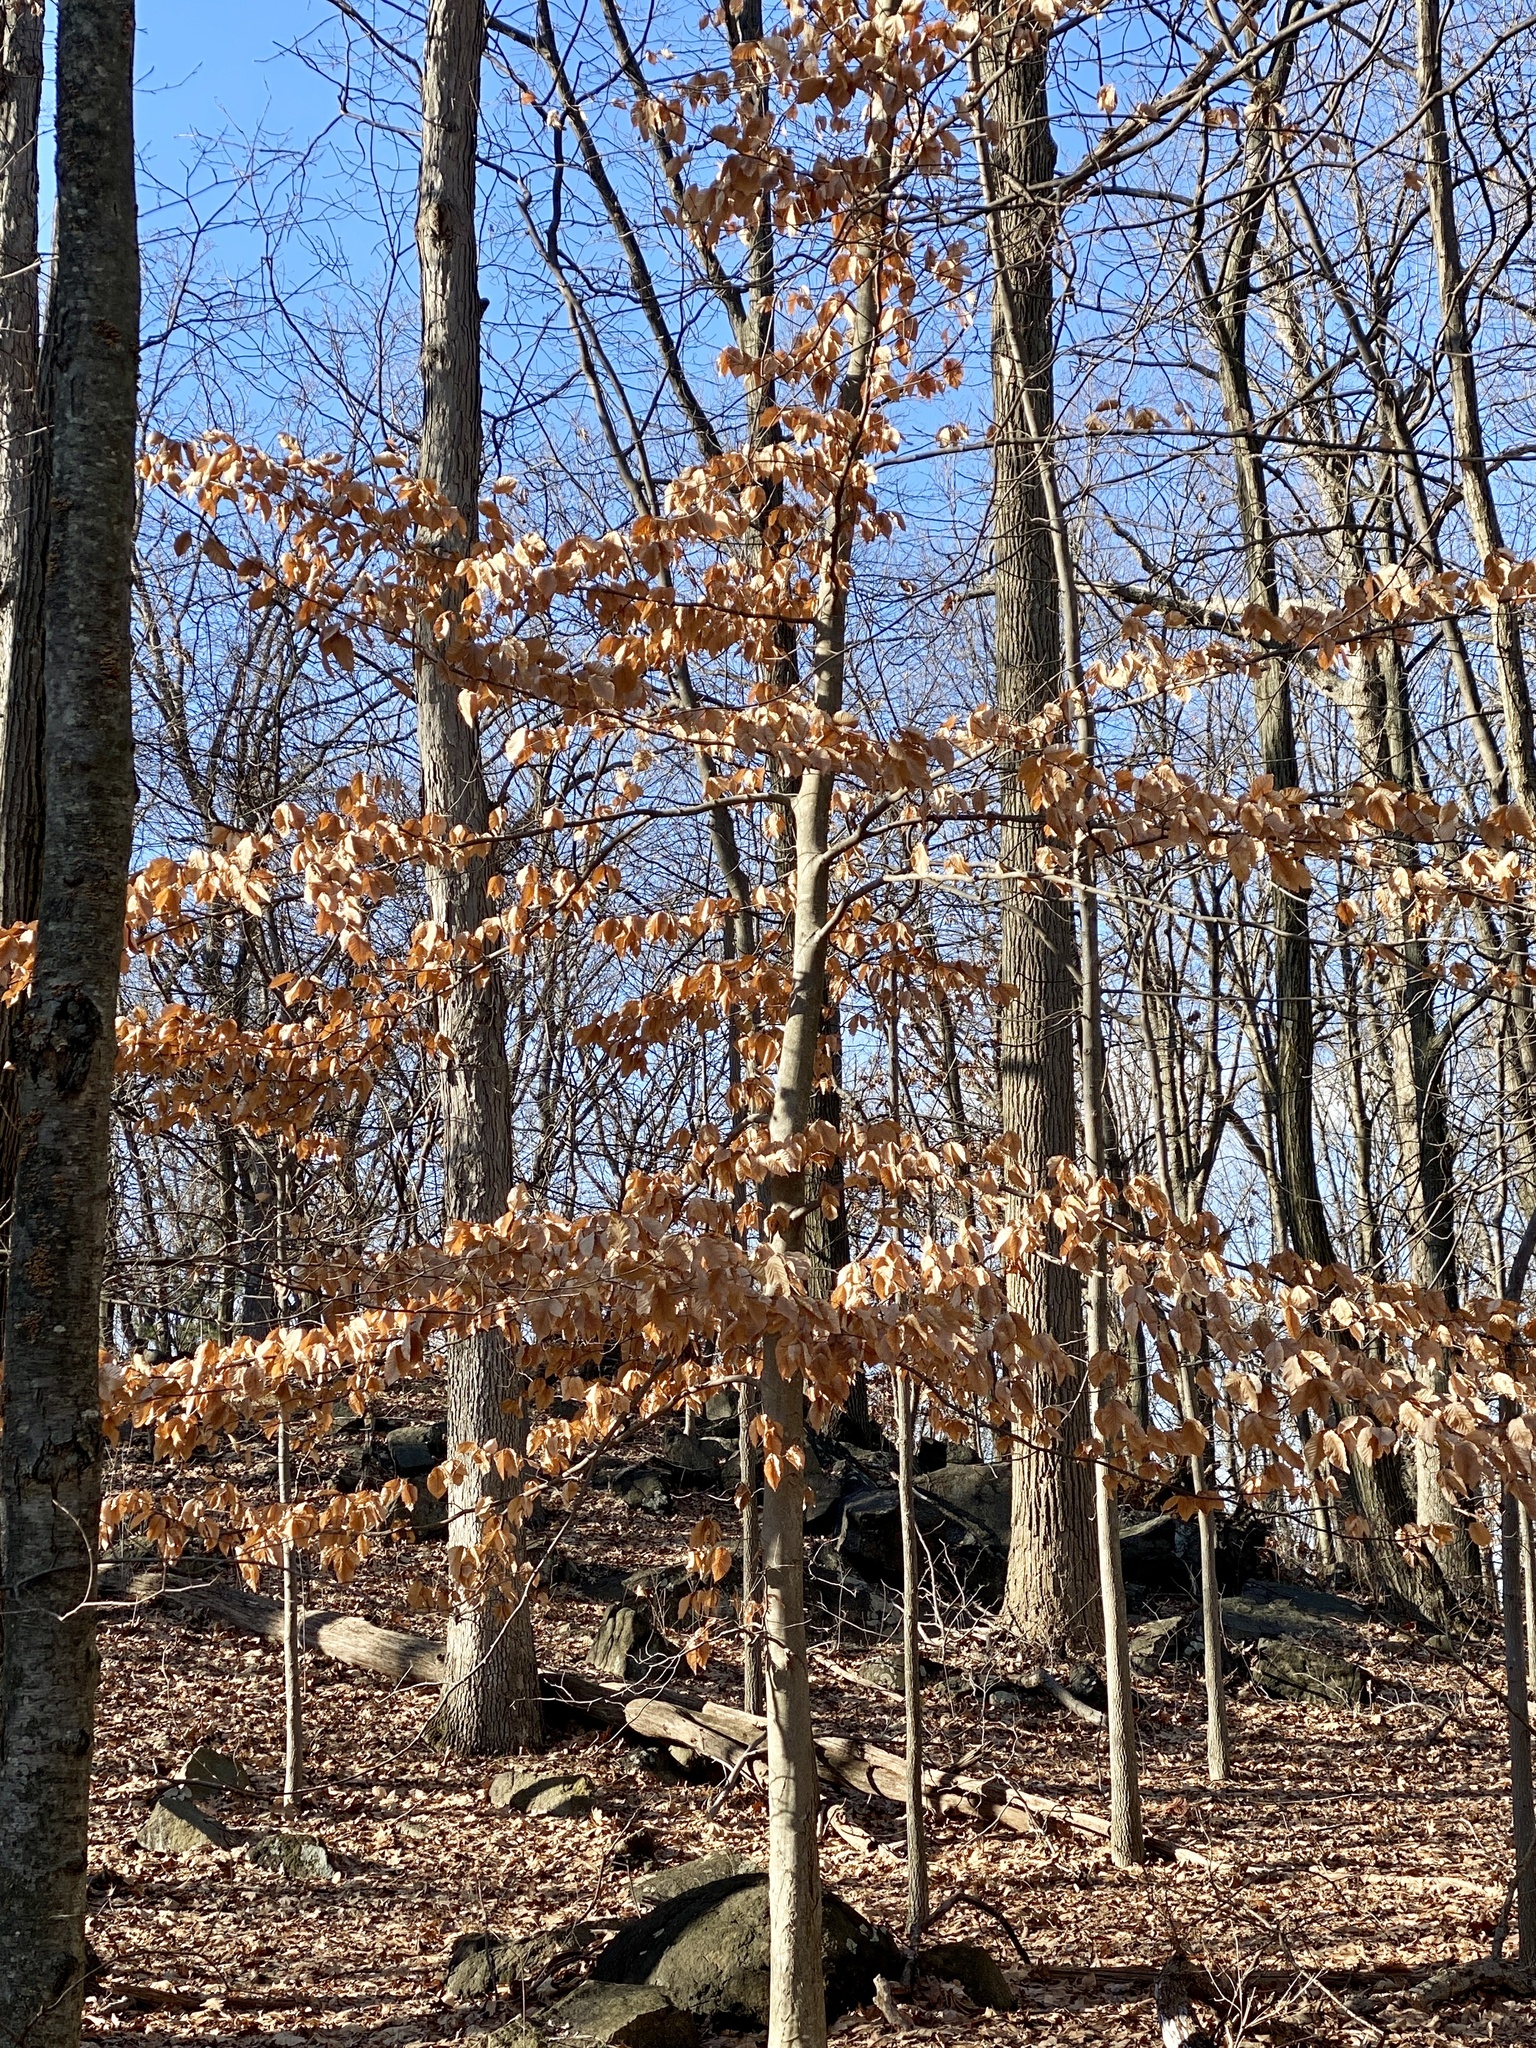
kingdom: Plantae
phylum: Tracheophyta
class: Magnoliopsida
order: Fagales
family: Fagaceae
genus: Fagus
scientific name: Fagus grandifolia
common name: American beech
